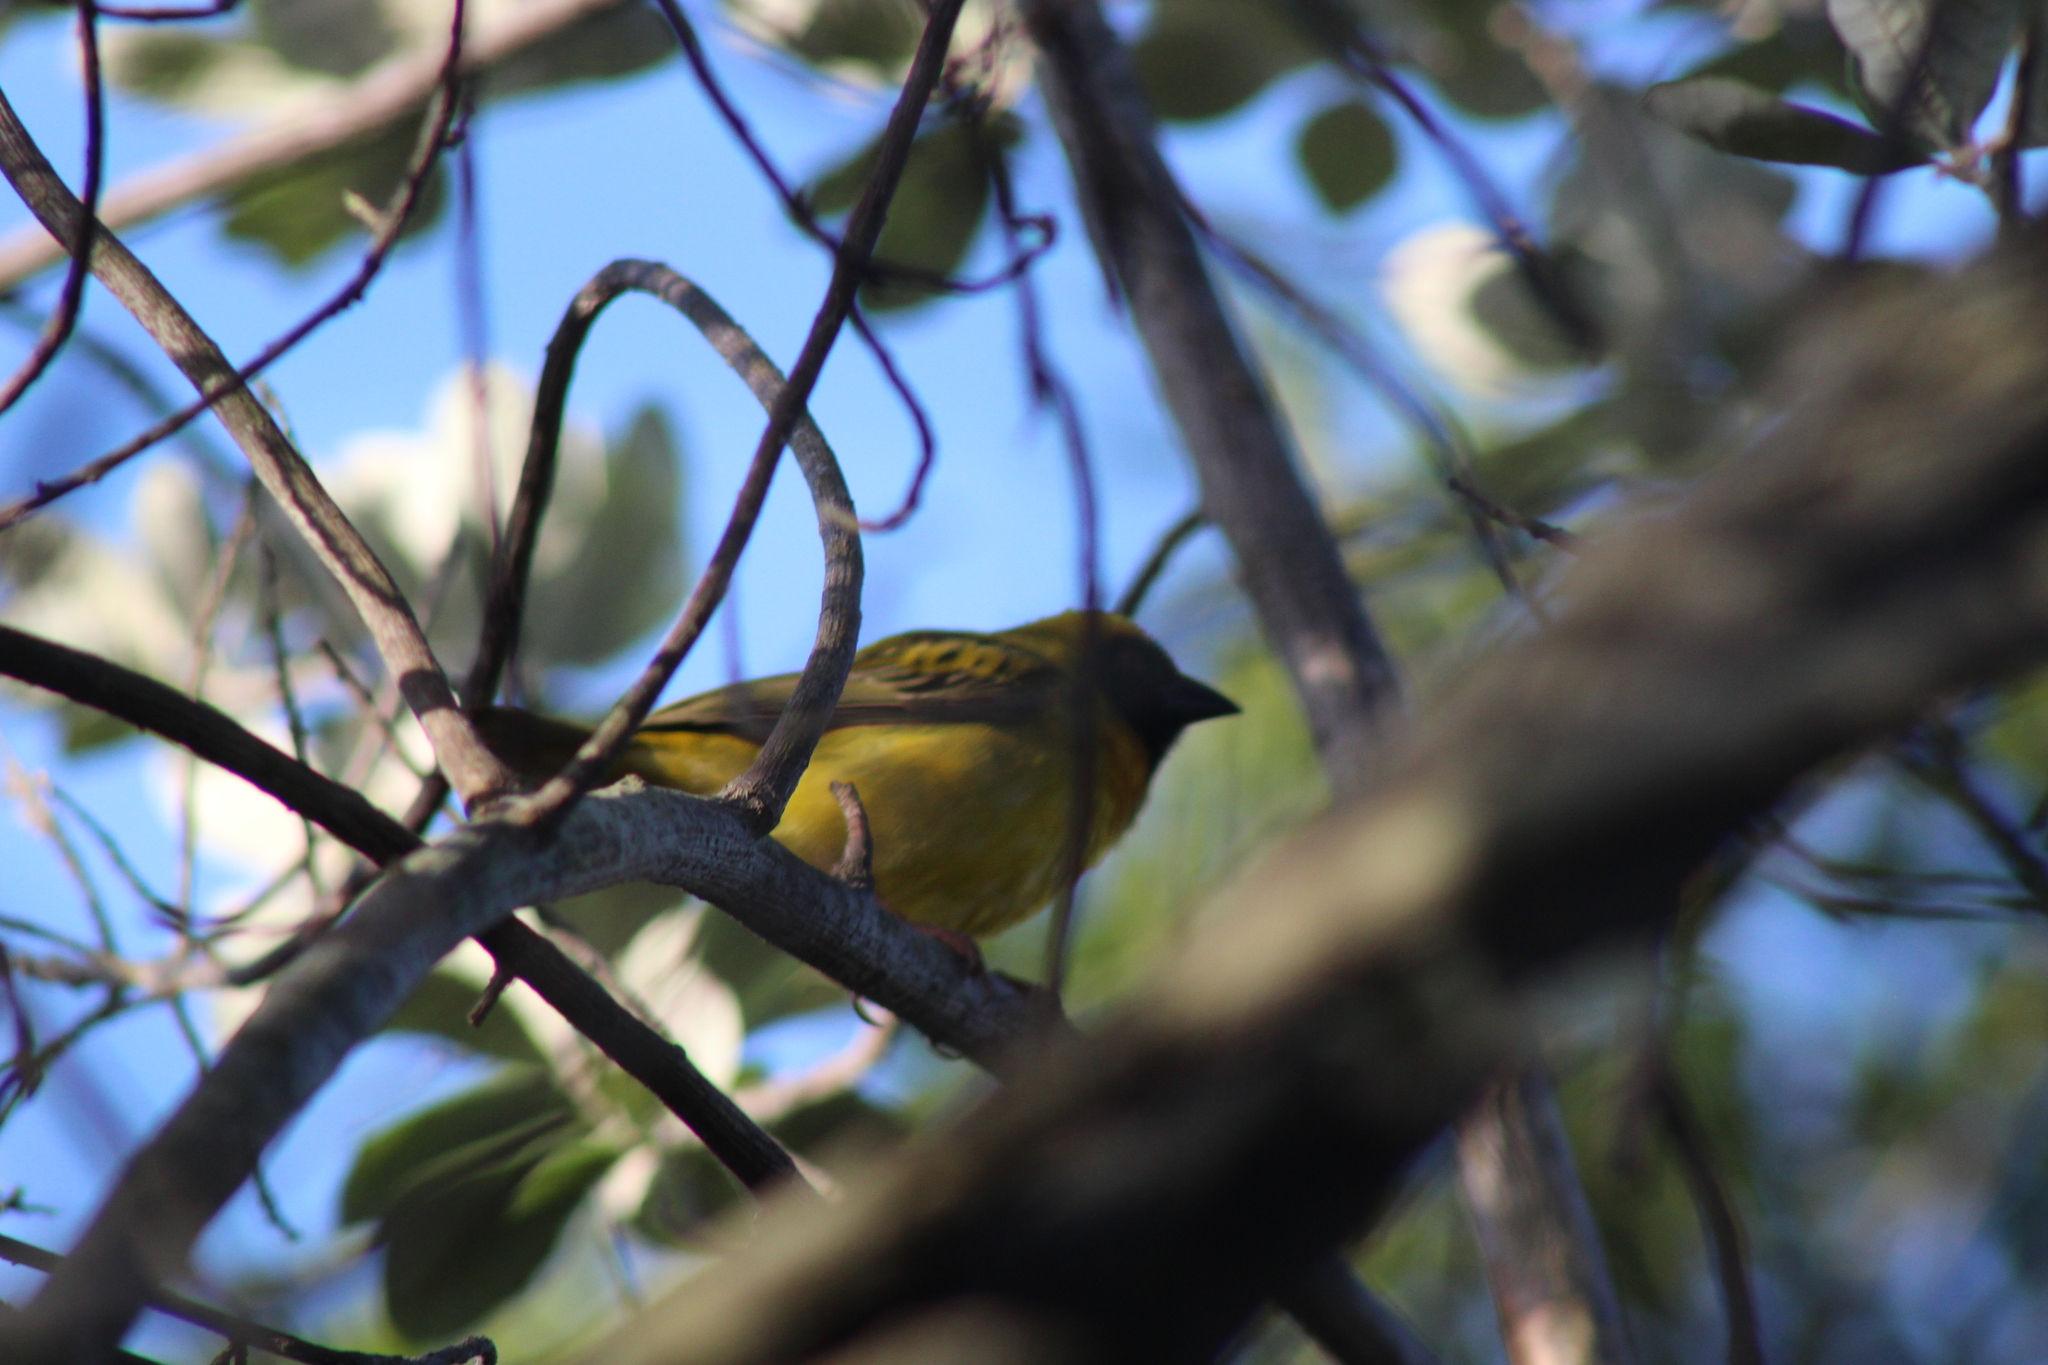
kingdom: Animalia
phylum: Chordata
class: Aves
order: Passeriformes
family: Ploceidae
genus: Ploceus
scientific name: Ploceus velatus
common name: Southern masked weaver
